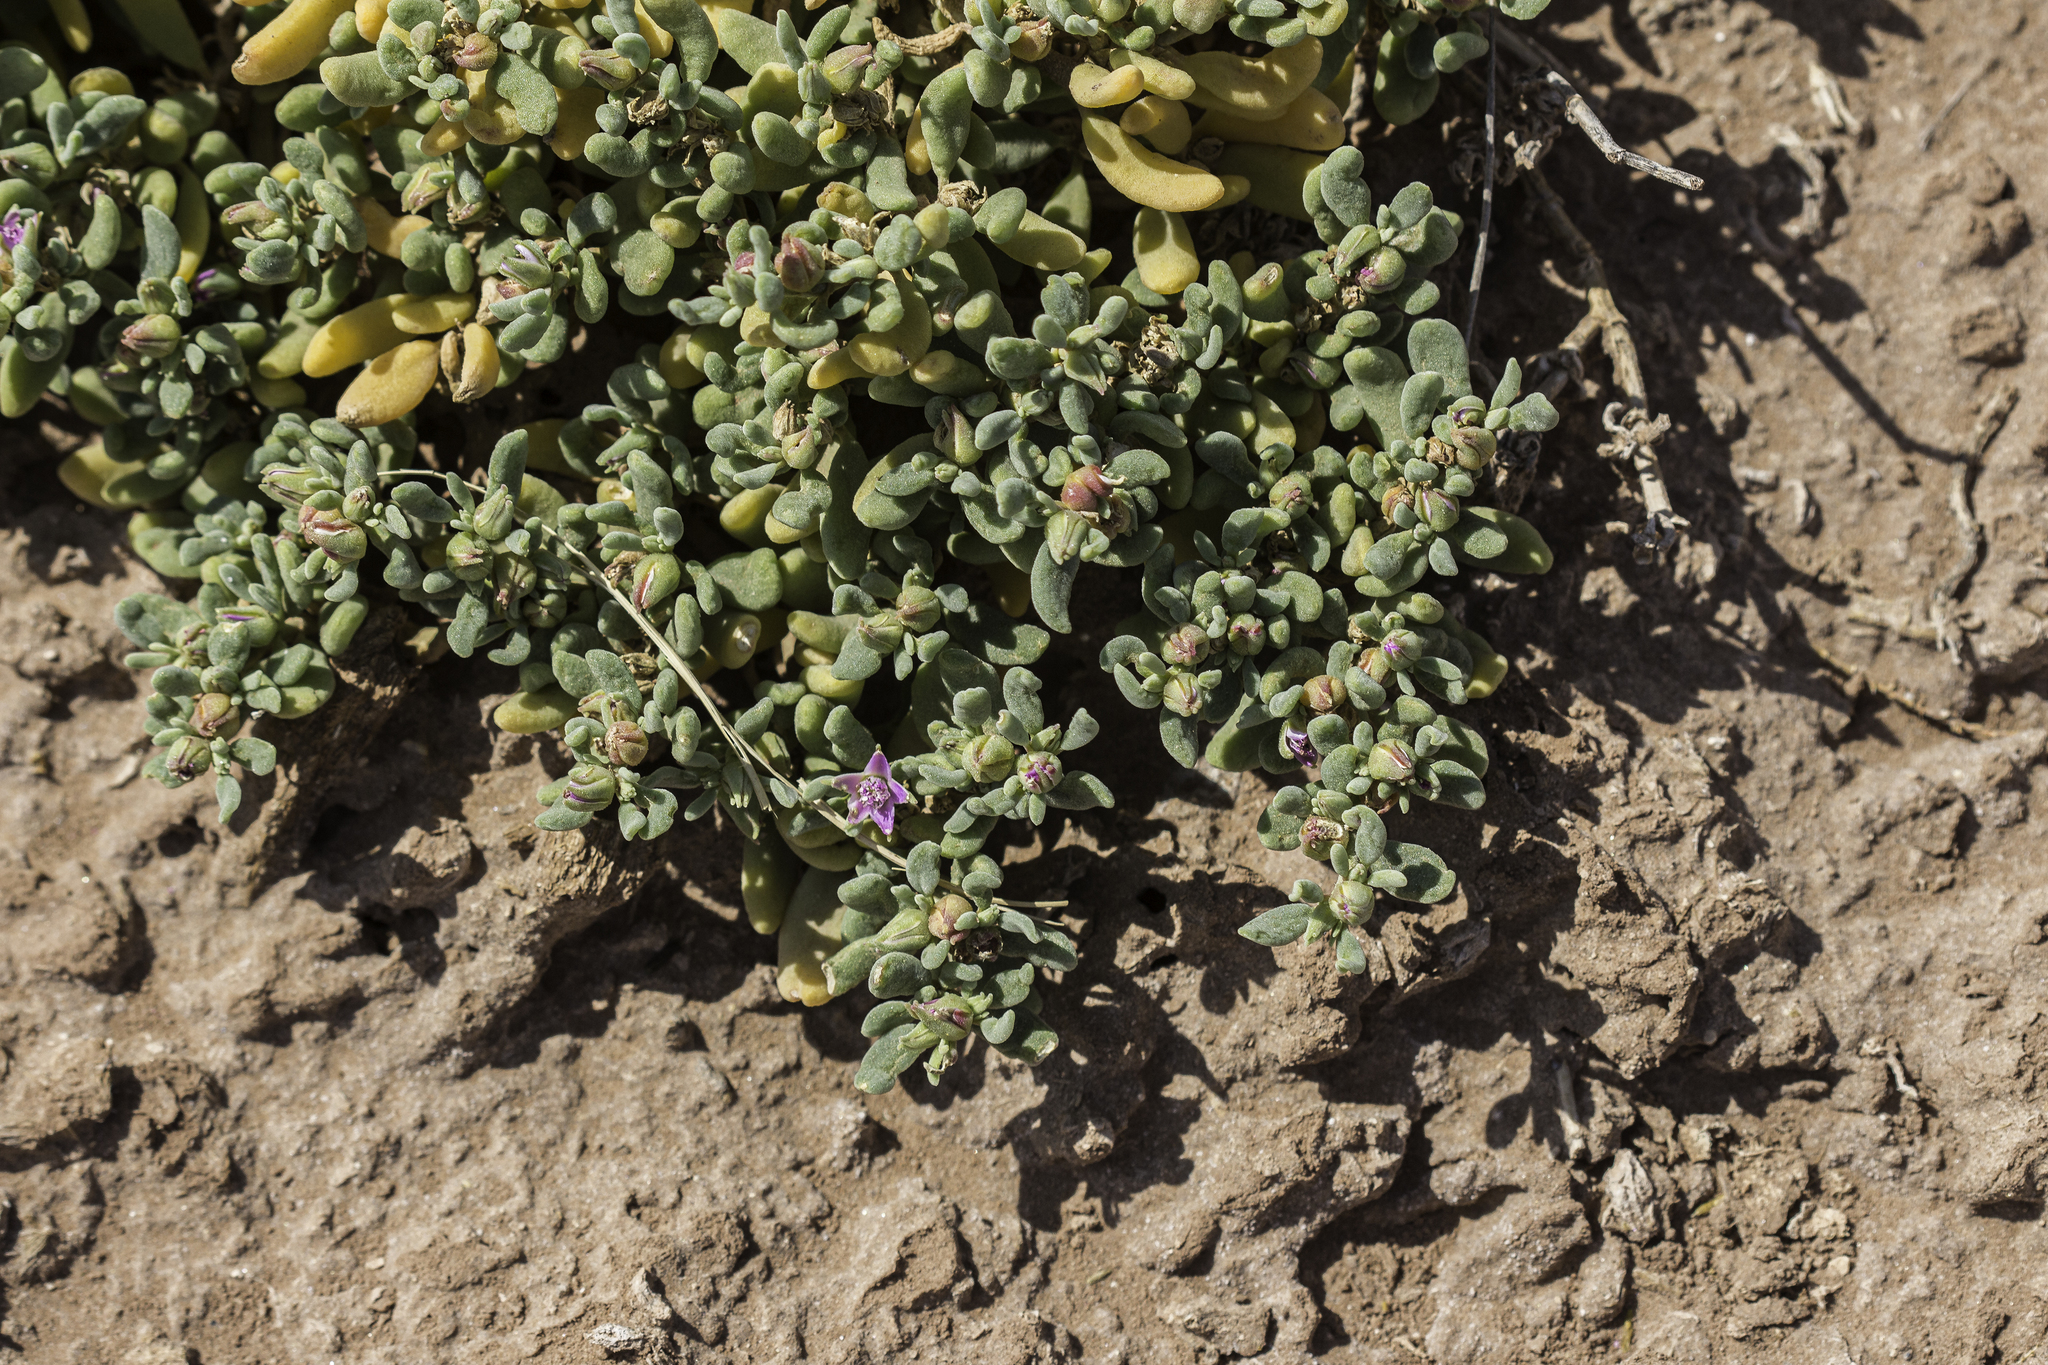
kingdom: Plantae
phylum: Tracheophyta
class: Magnoliopsida
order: Caryophyllales
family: Aizoaceae
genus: Sesuvium
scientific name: Sesuvium revolutifolium
